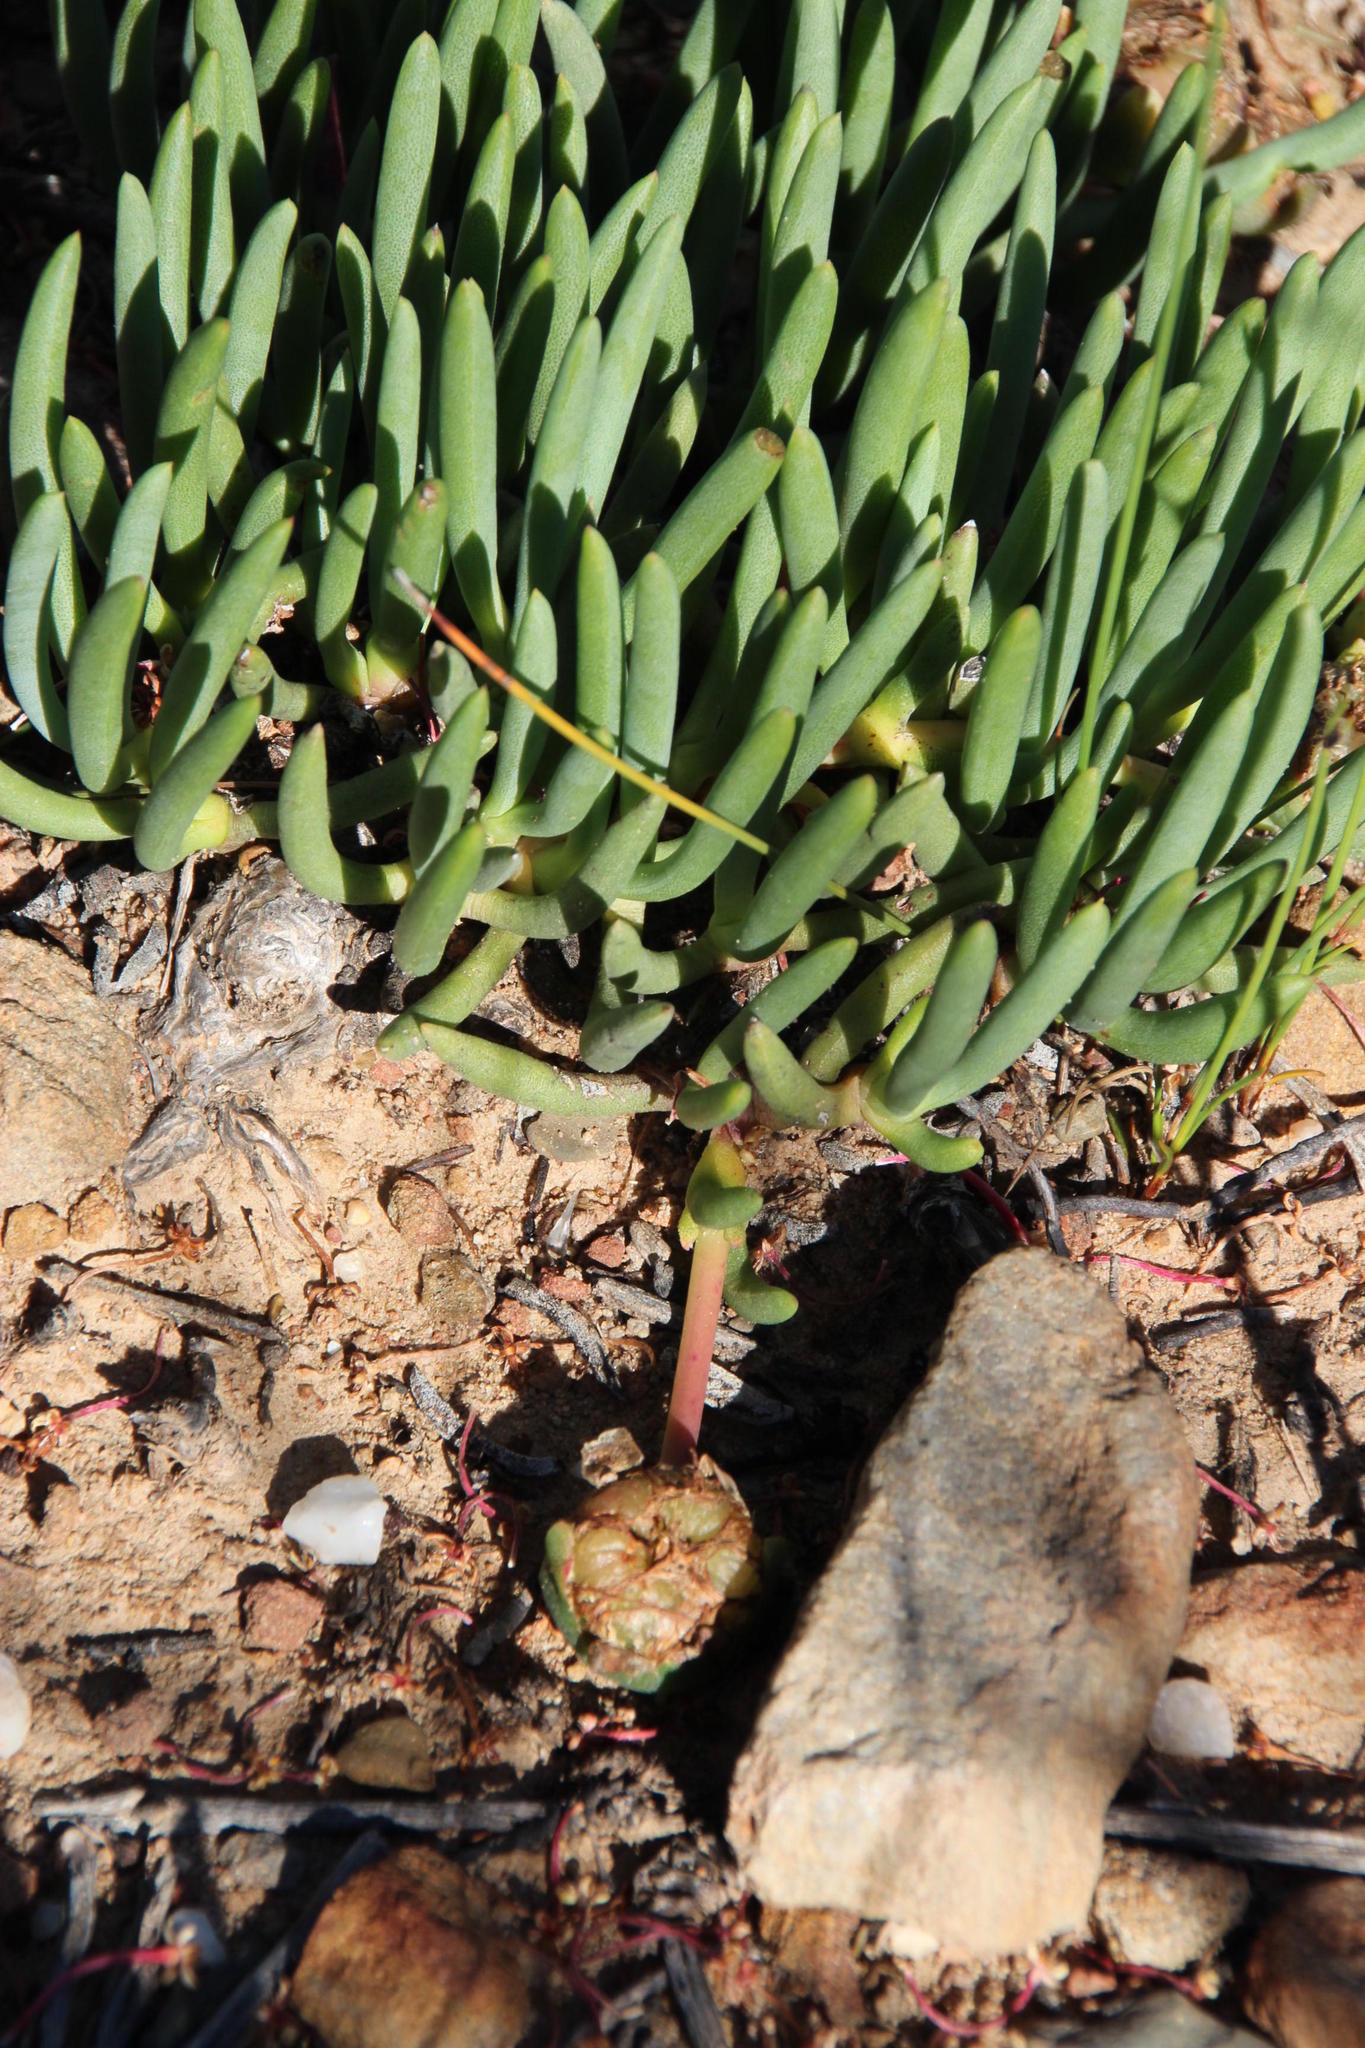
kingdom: Plantae
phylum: Tracheophyta
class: Magnoliopsida
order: Caryophyllales
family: Aizoaceae
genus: Cephalophyllum
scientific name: Cephalophyllum purpureoalbum
